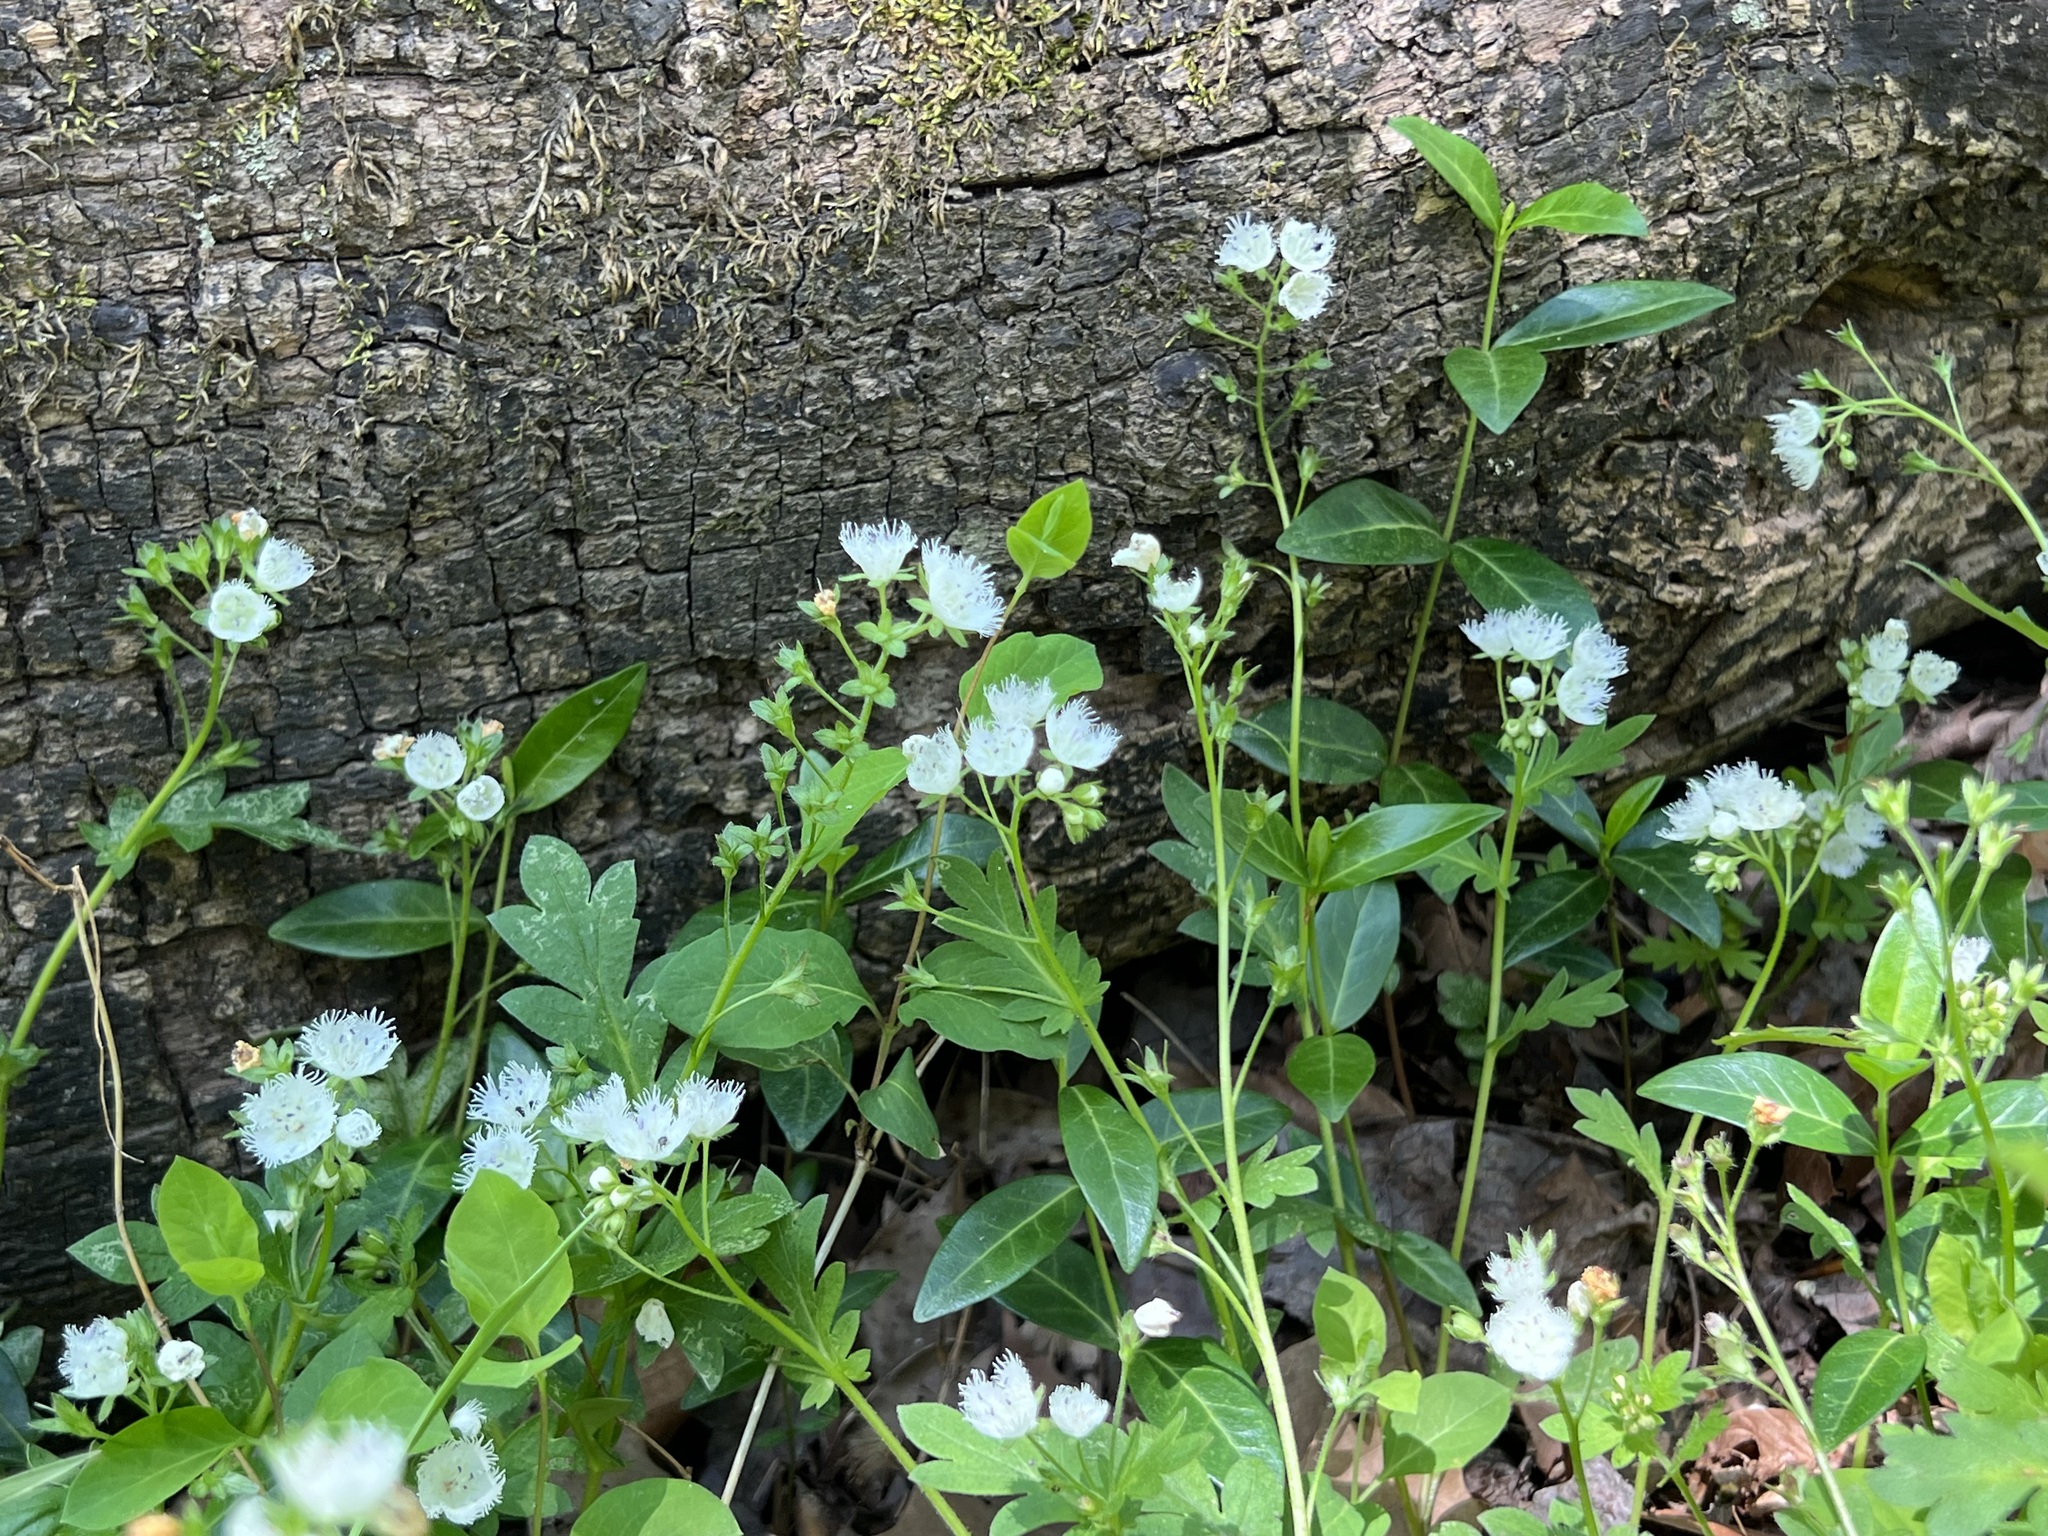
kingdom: Plantae
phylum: Tracheophyta
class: Magnoliopsida
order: Boraginales
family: Hydrophyllaceae
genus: Phacelia
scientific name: Phacelia fimbriata
